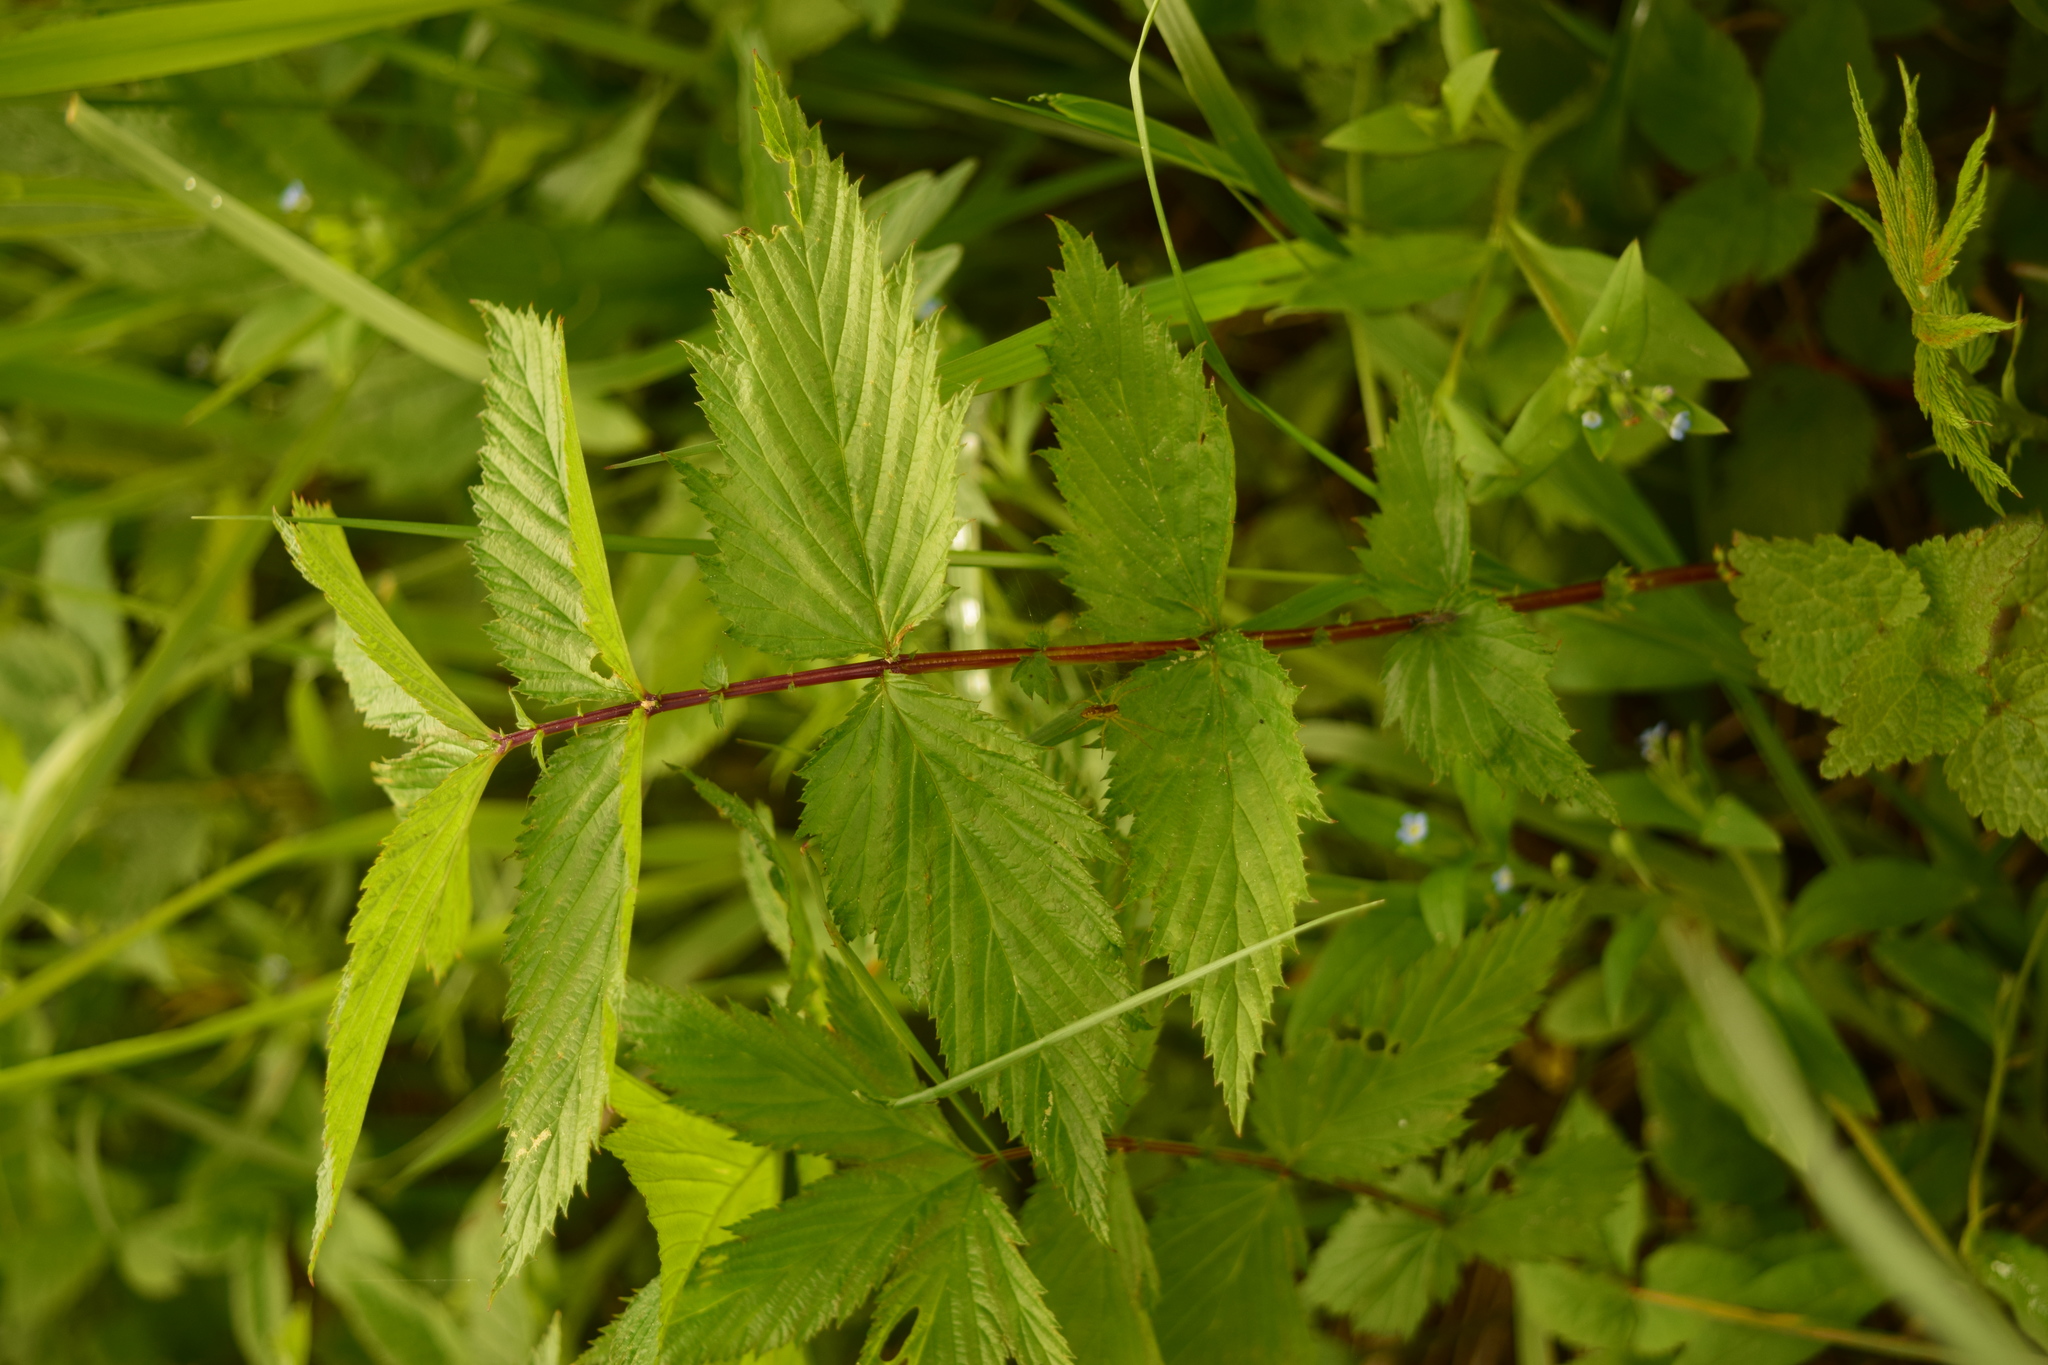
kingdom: Plantae
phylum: Tracheophyta
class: Magnoliopsida
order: Rosales
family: Rosaceae
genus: Filipendula
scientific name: Filipendula ulmaria
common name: Meadowsweet
